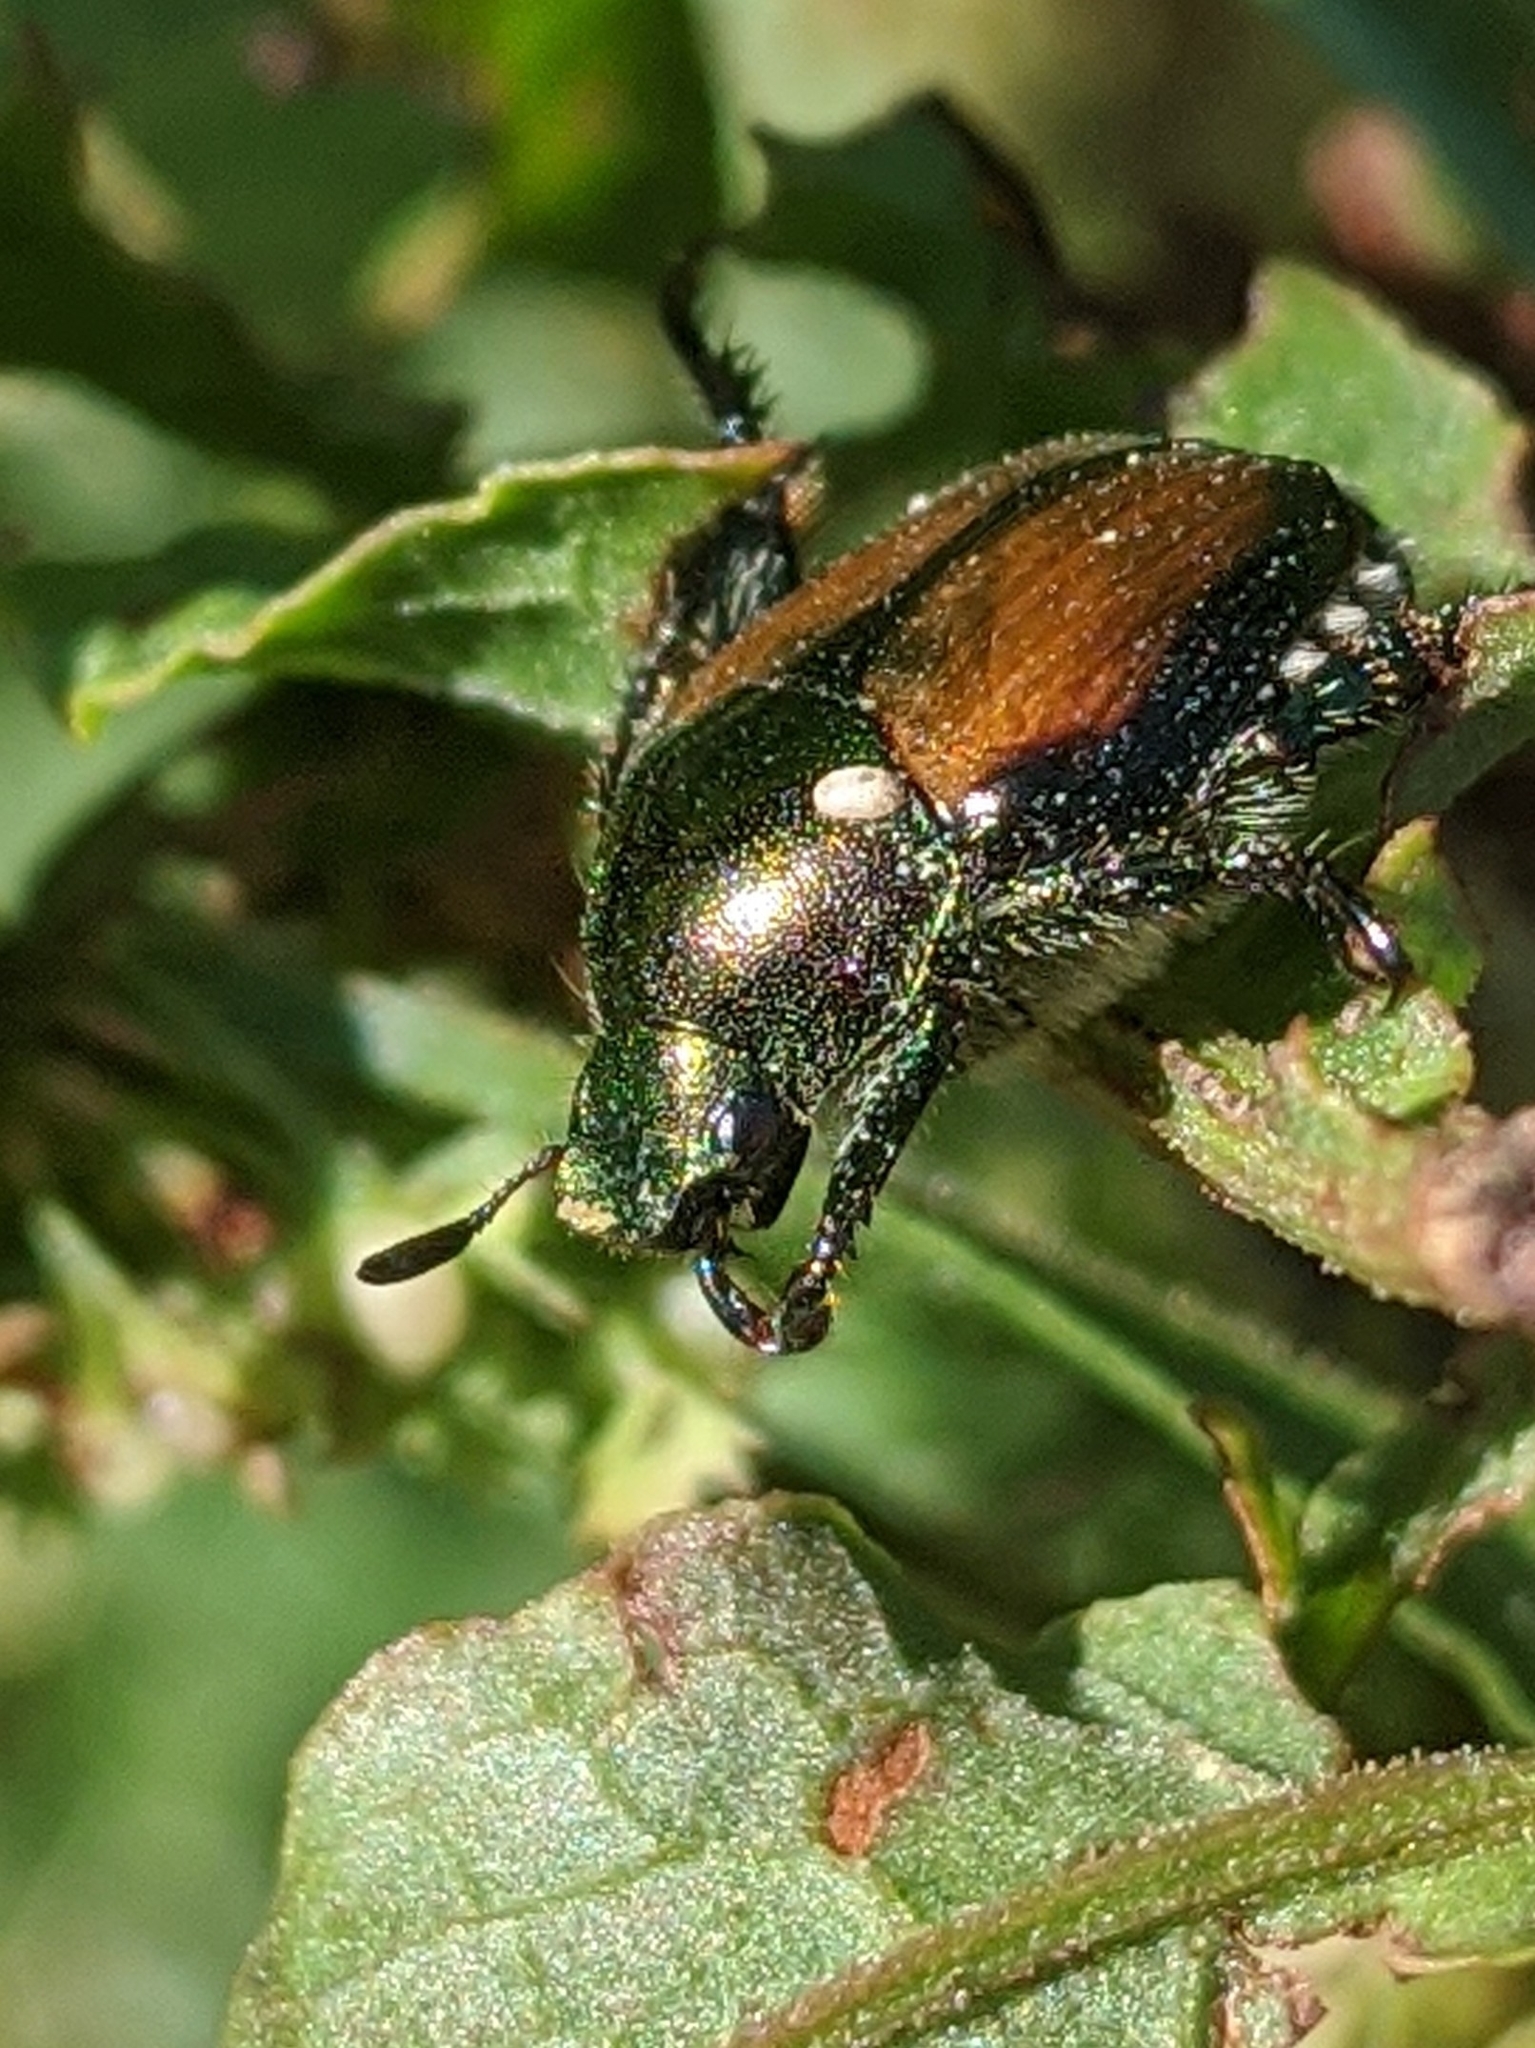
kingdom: Animalia
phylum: Arthropoda
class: Insecta
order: Diptera
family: Tachinidae
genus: Istocheta
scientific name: Istocheta aldrichi
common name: Parasitic wasp
